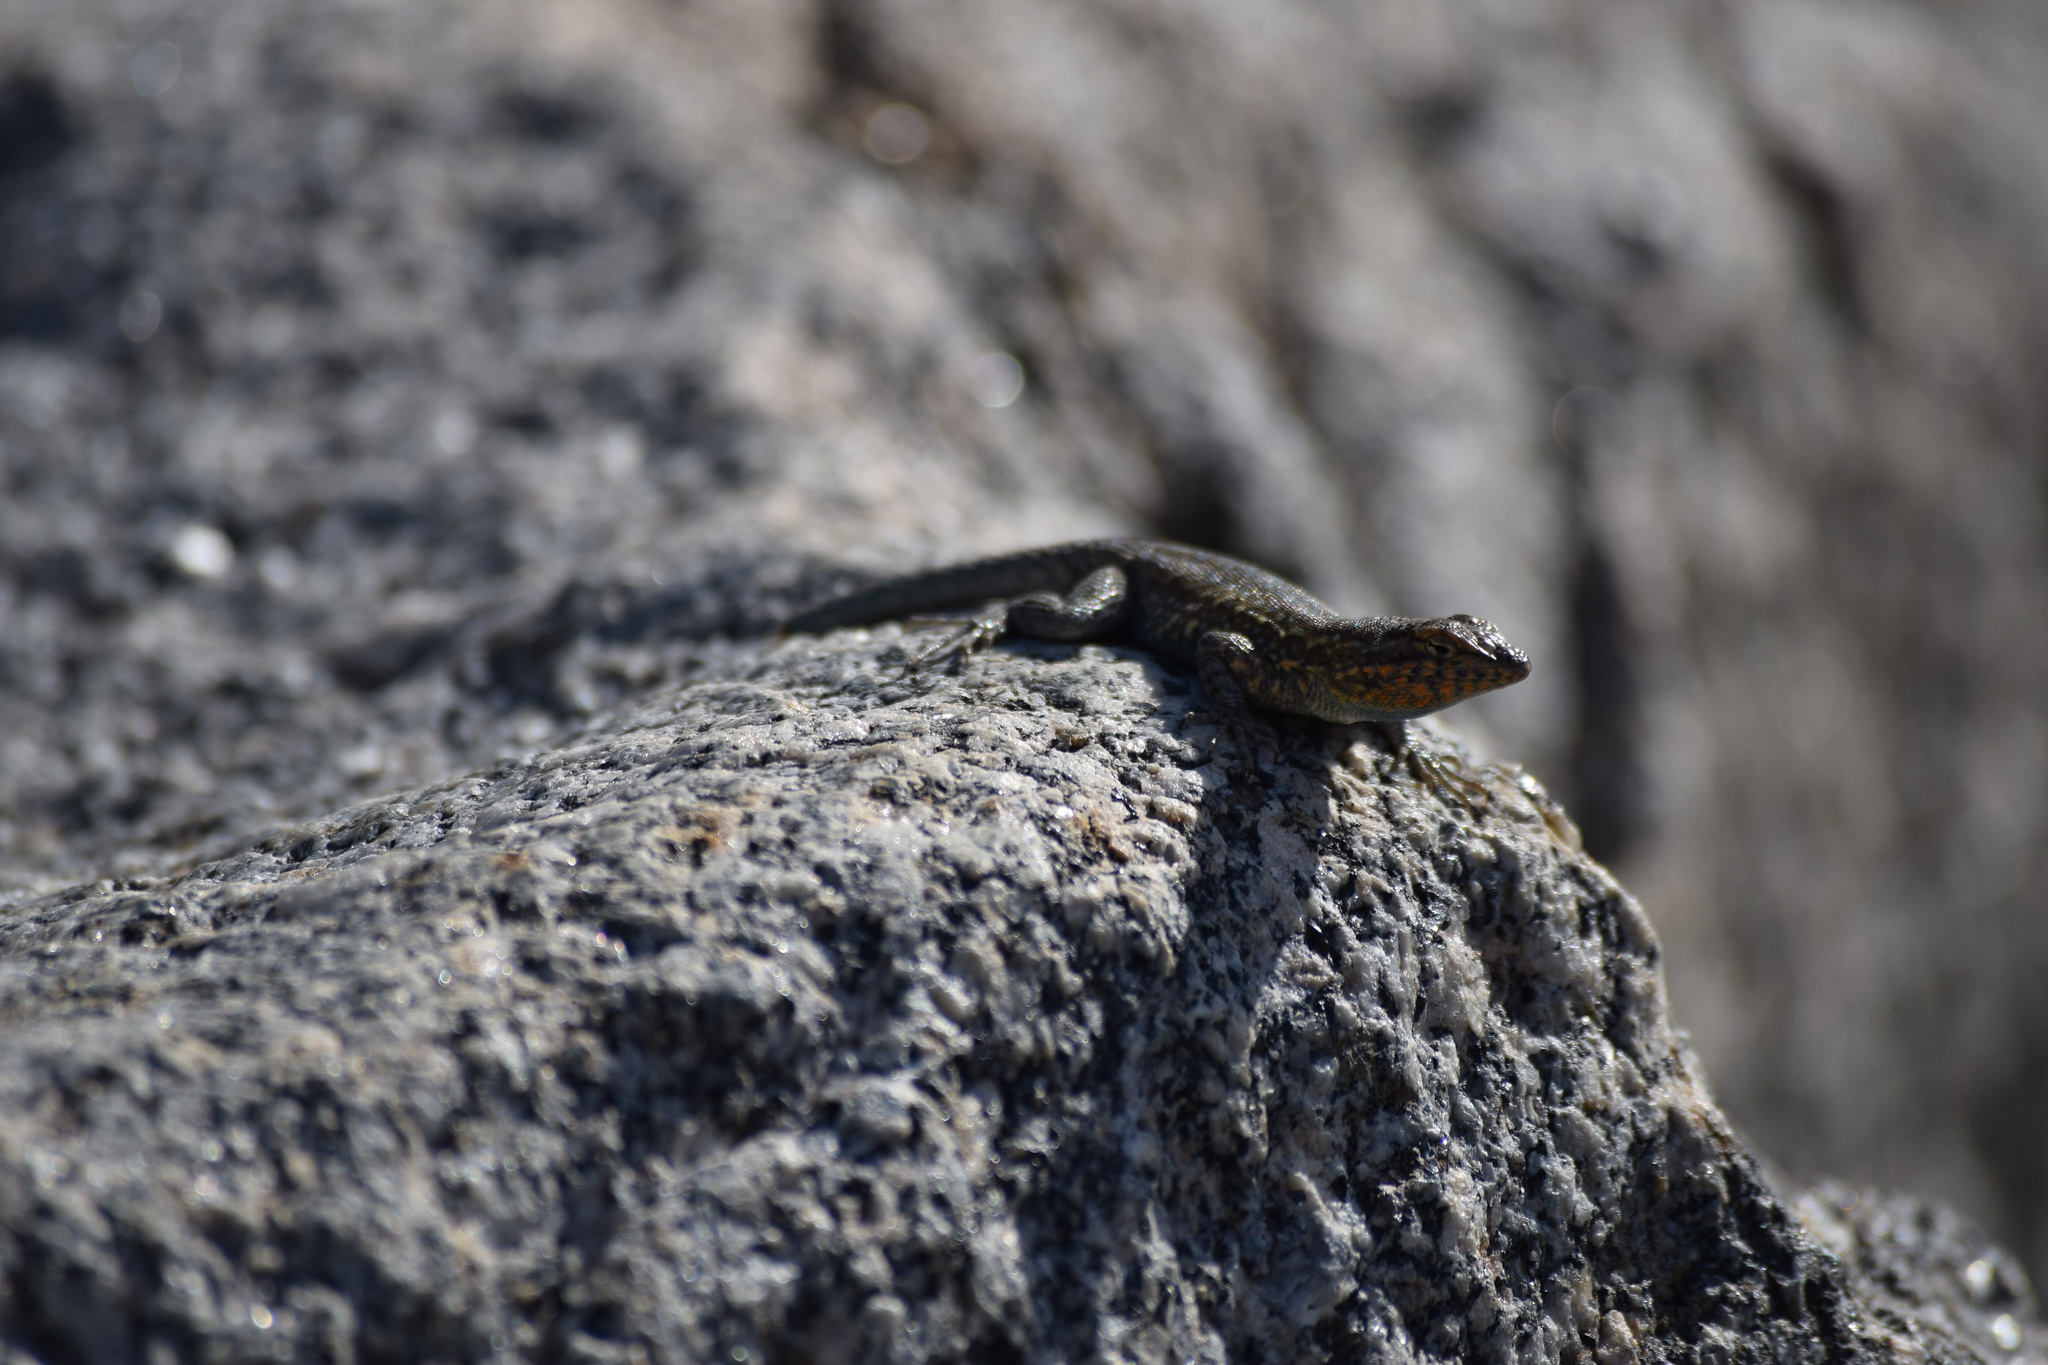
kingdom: Animalia
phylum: Chordata
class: Squamata
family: Phrynosomatidae
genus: Uta
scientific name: Uta stansburiana
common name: Side-blotched lizard
